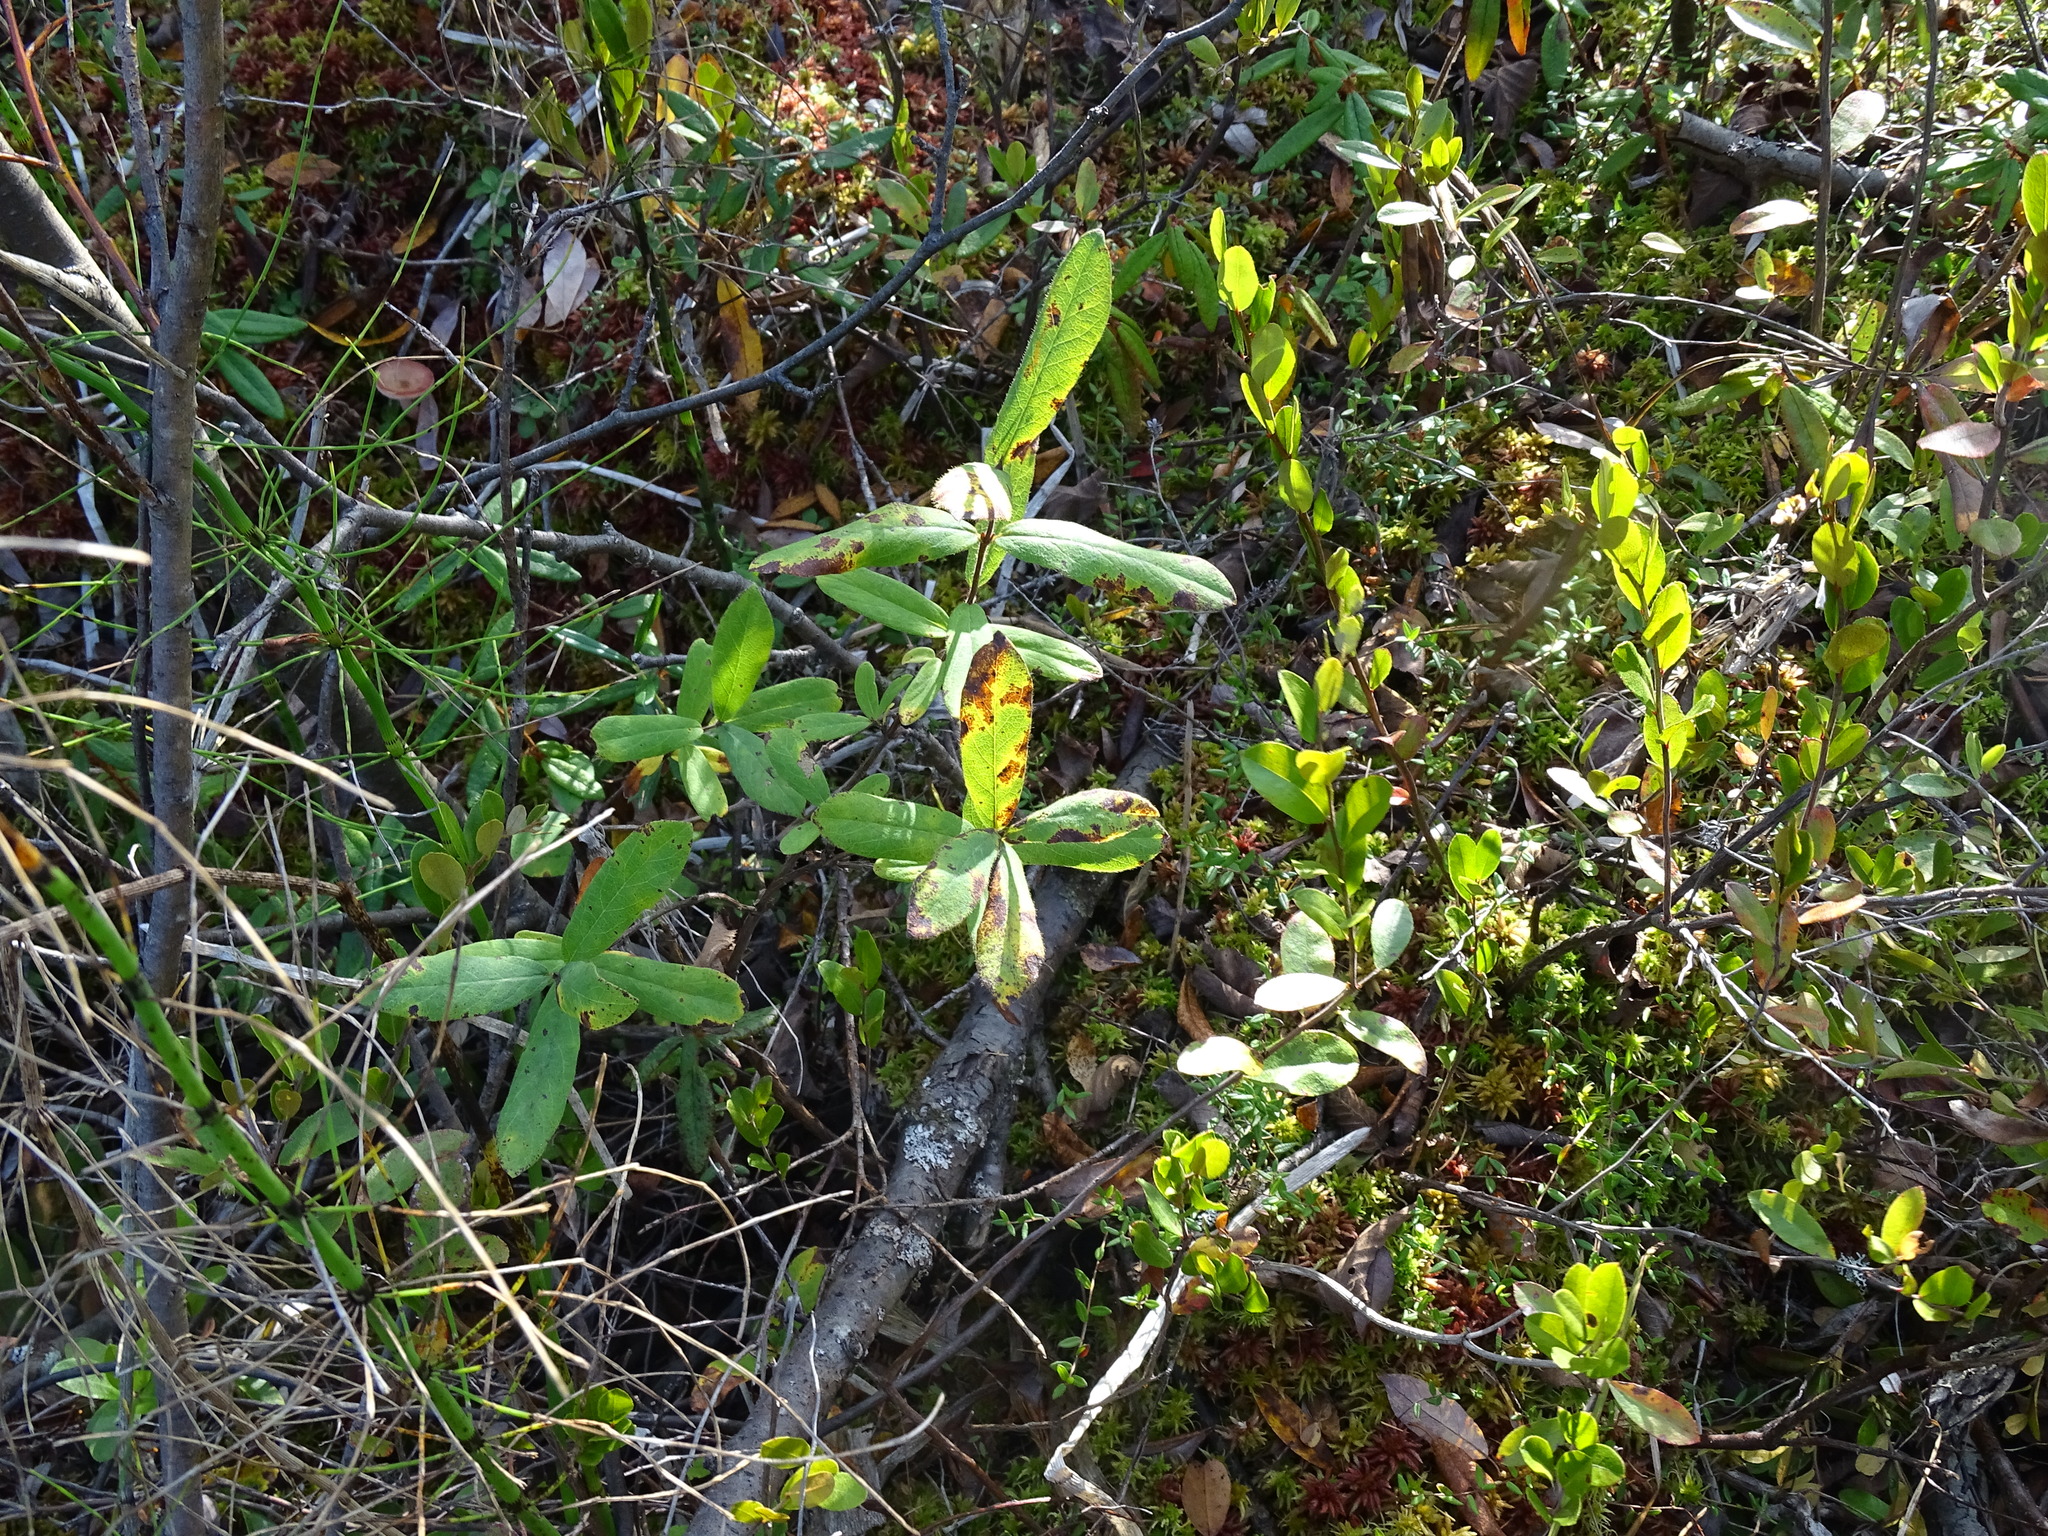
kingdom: Plantae
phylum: Tracheophyta
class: Magnoliopsida
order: Dipsacales
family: Caprifoliaceae
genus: Lonicera
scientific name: Lonicera villosa
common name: Mountain fly-honeysuckle
